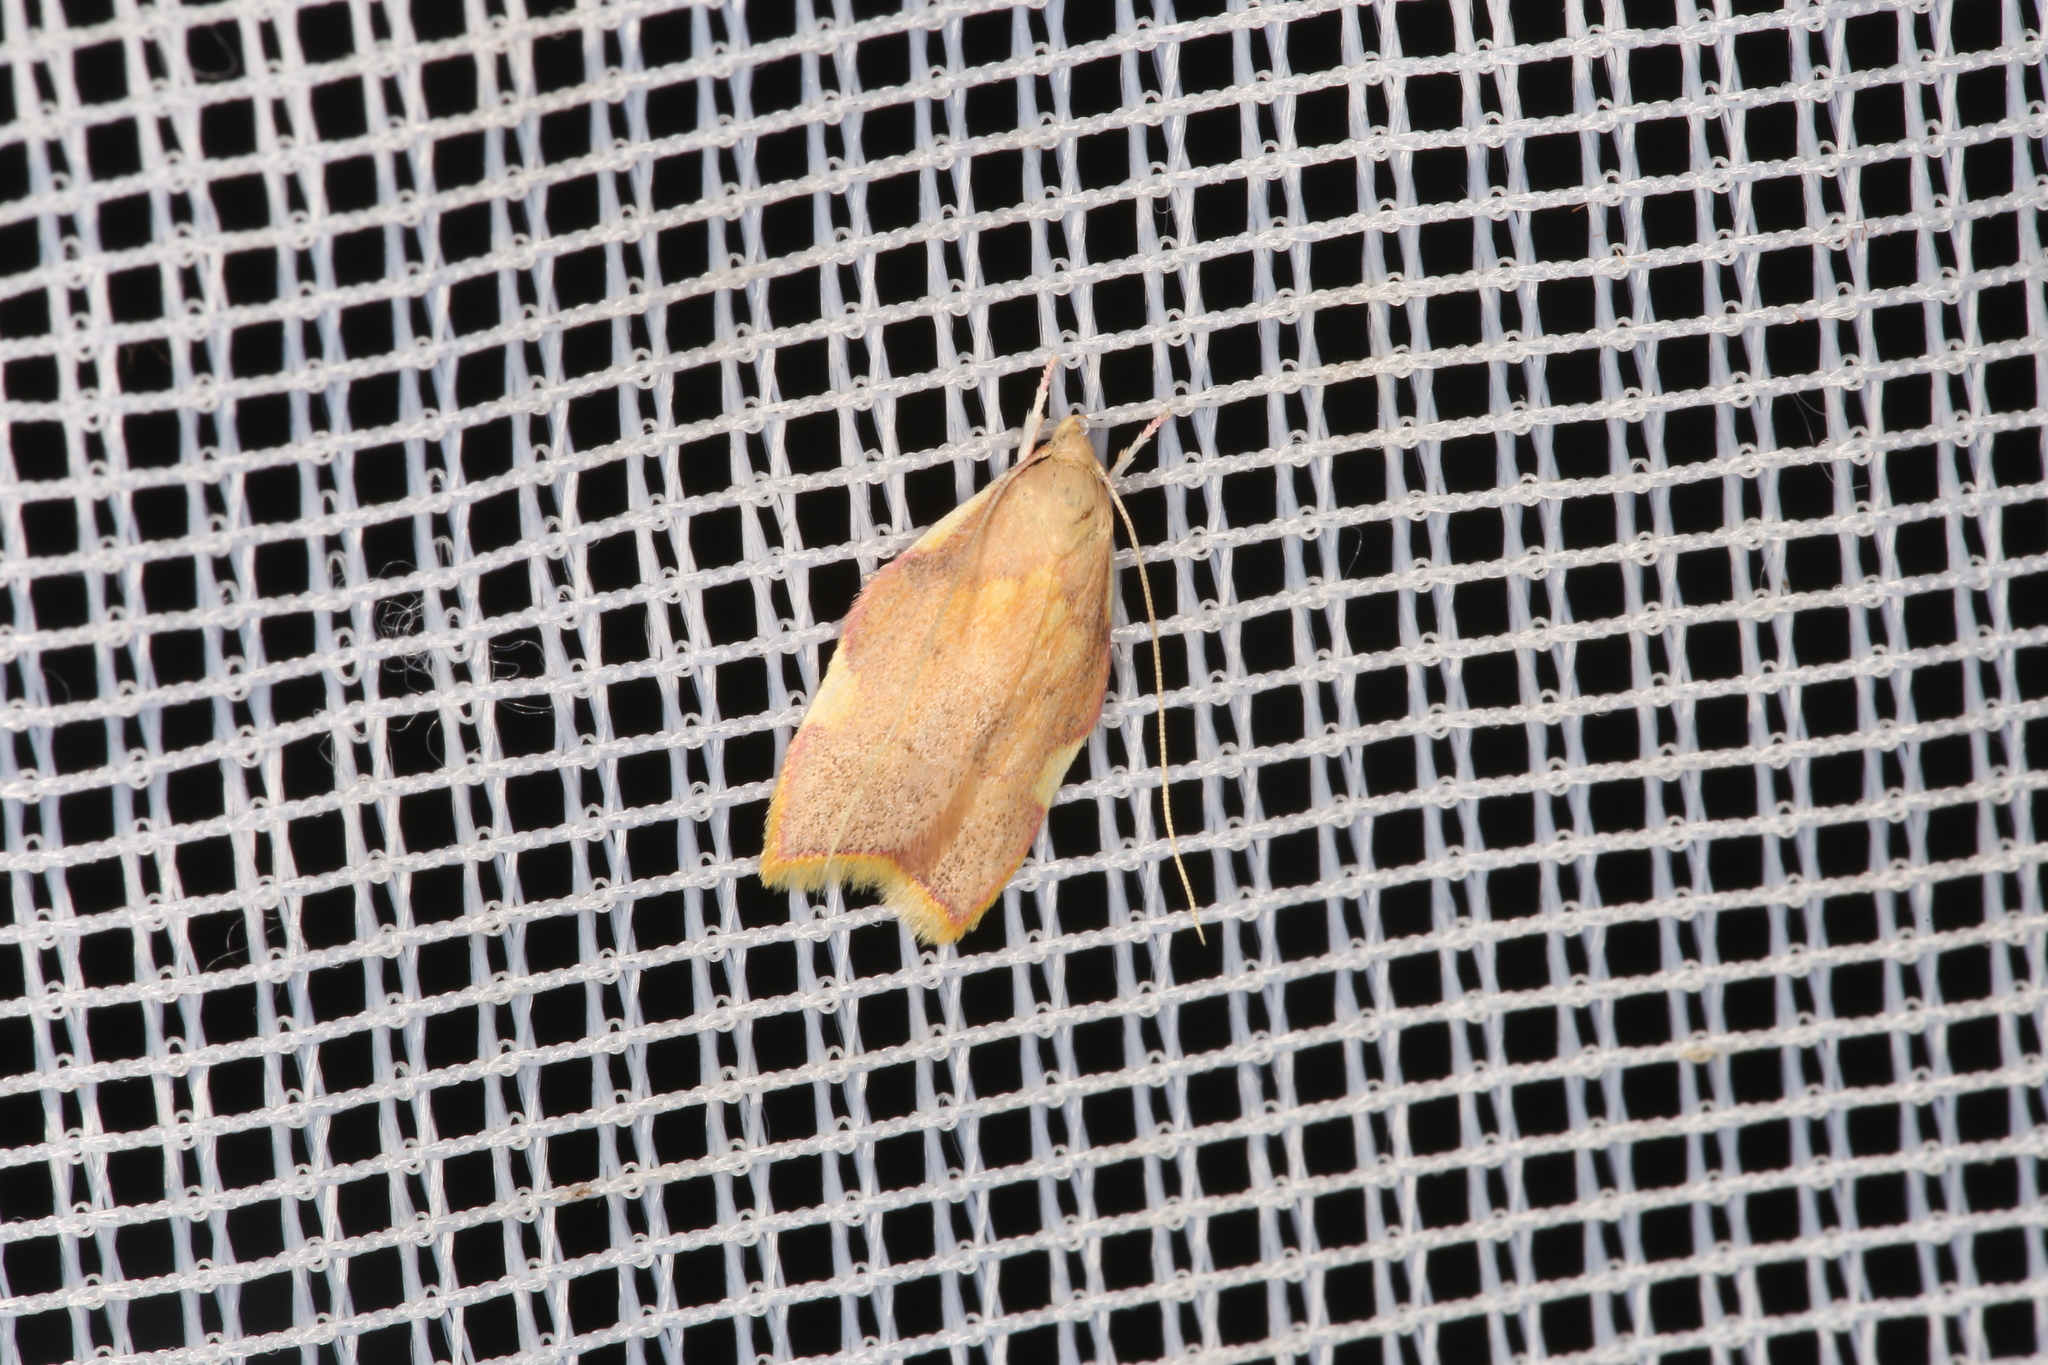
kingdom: Animalia
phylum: Arthropoda
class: Insecta
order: Lepidoptera
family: Peleopodidae
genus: Carcina
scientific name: Carcina quercana
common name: Moth
